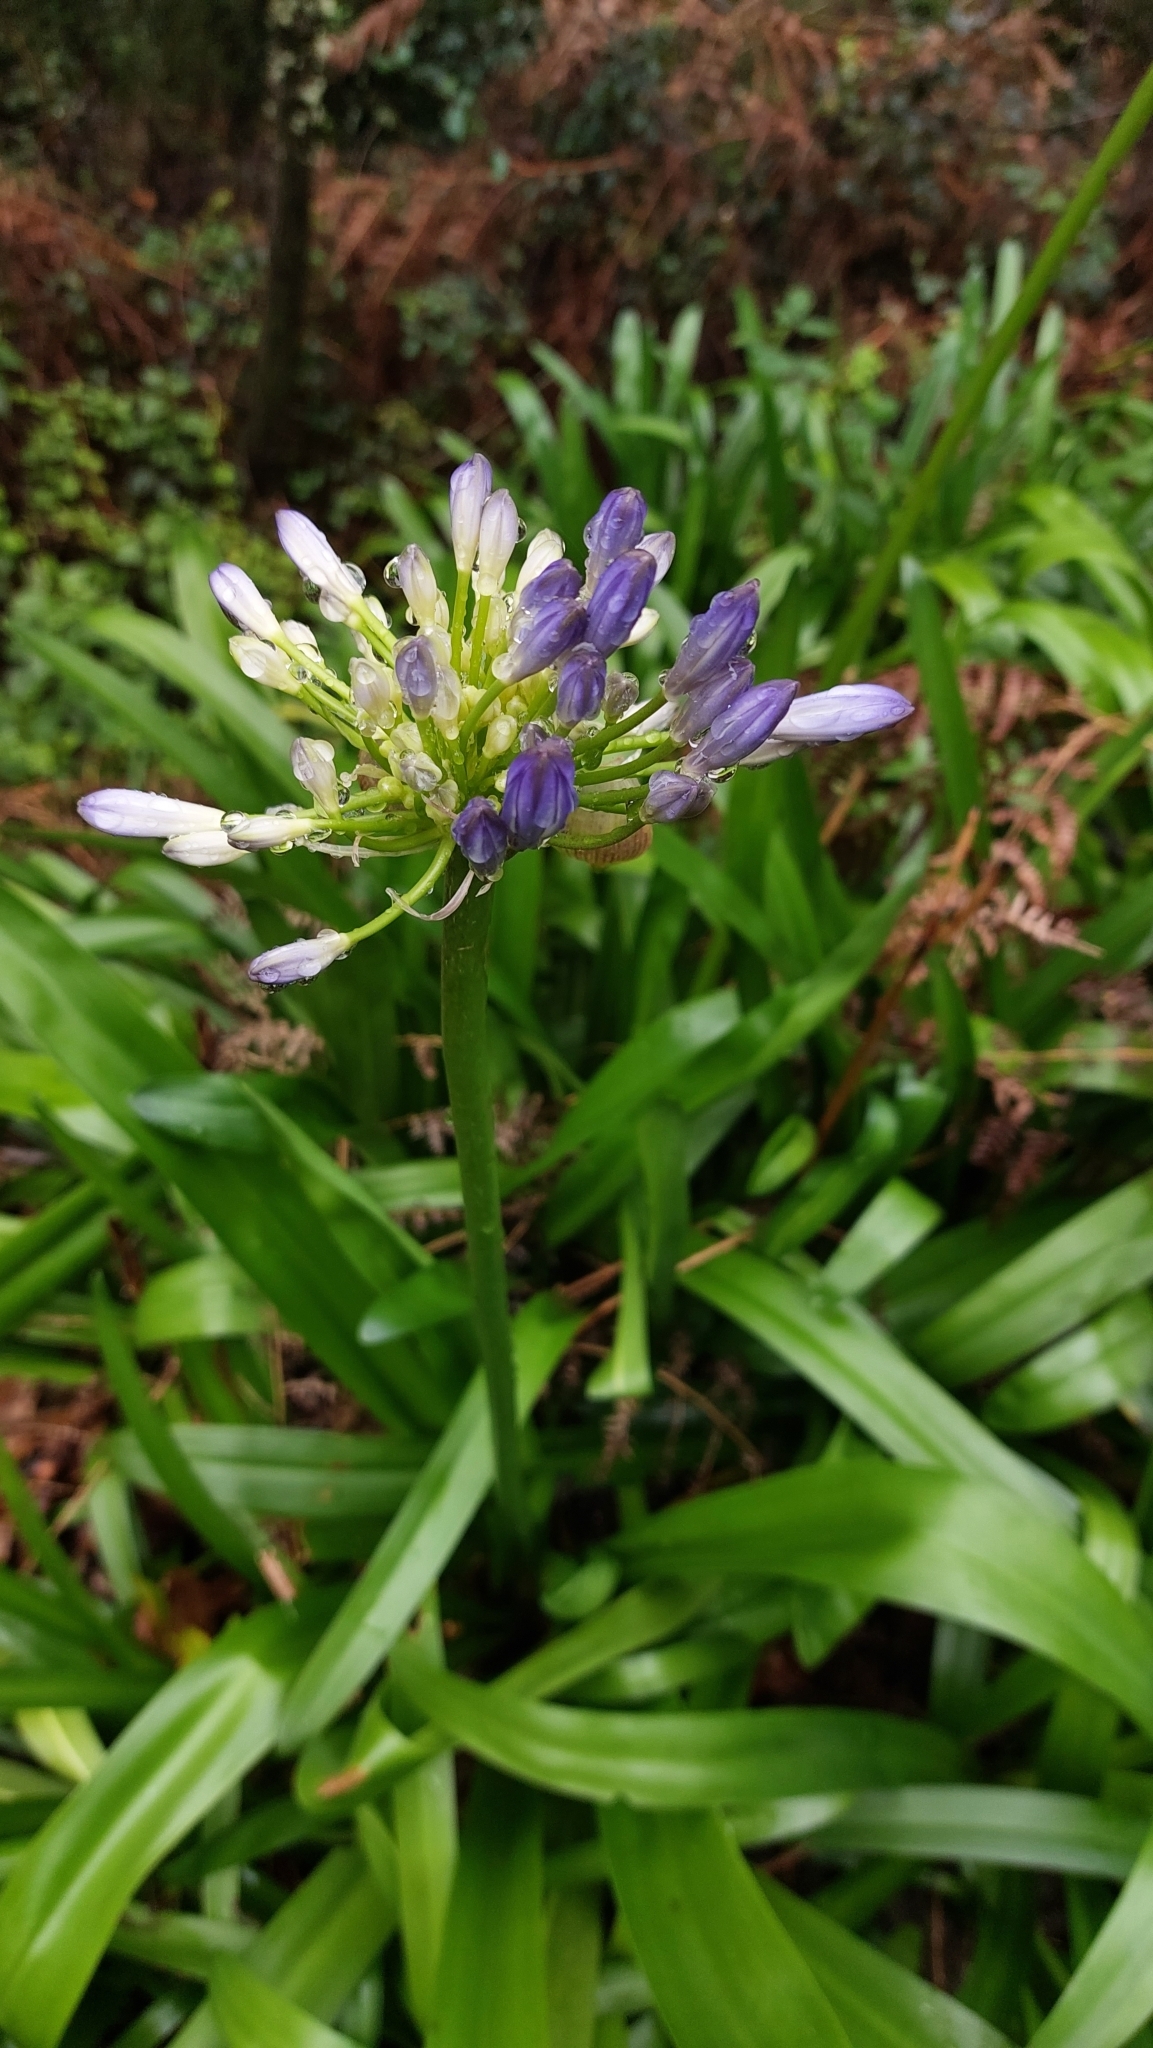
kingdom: Plantae
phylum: Tracheophyta
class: Liliopsida
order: Asparagales
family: Amaryllidaceae
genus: Agapanthus
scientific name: Agapanthus praecox
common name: African-lily
